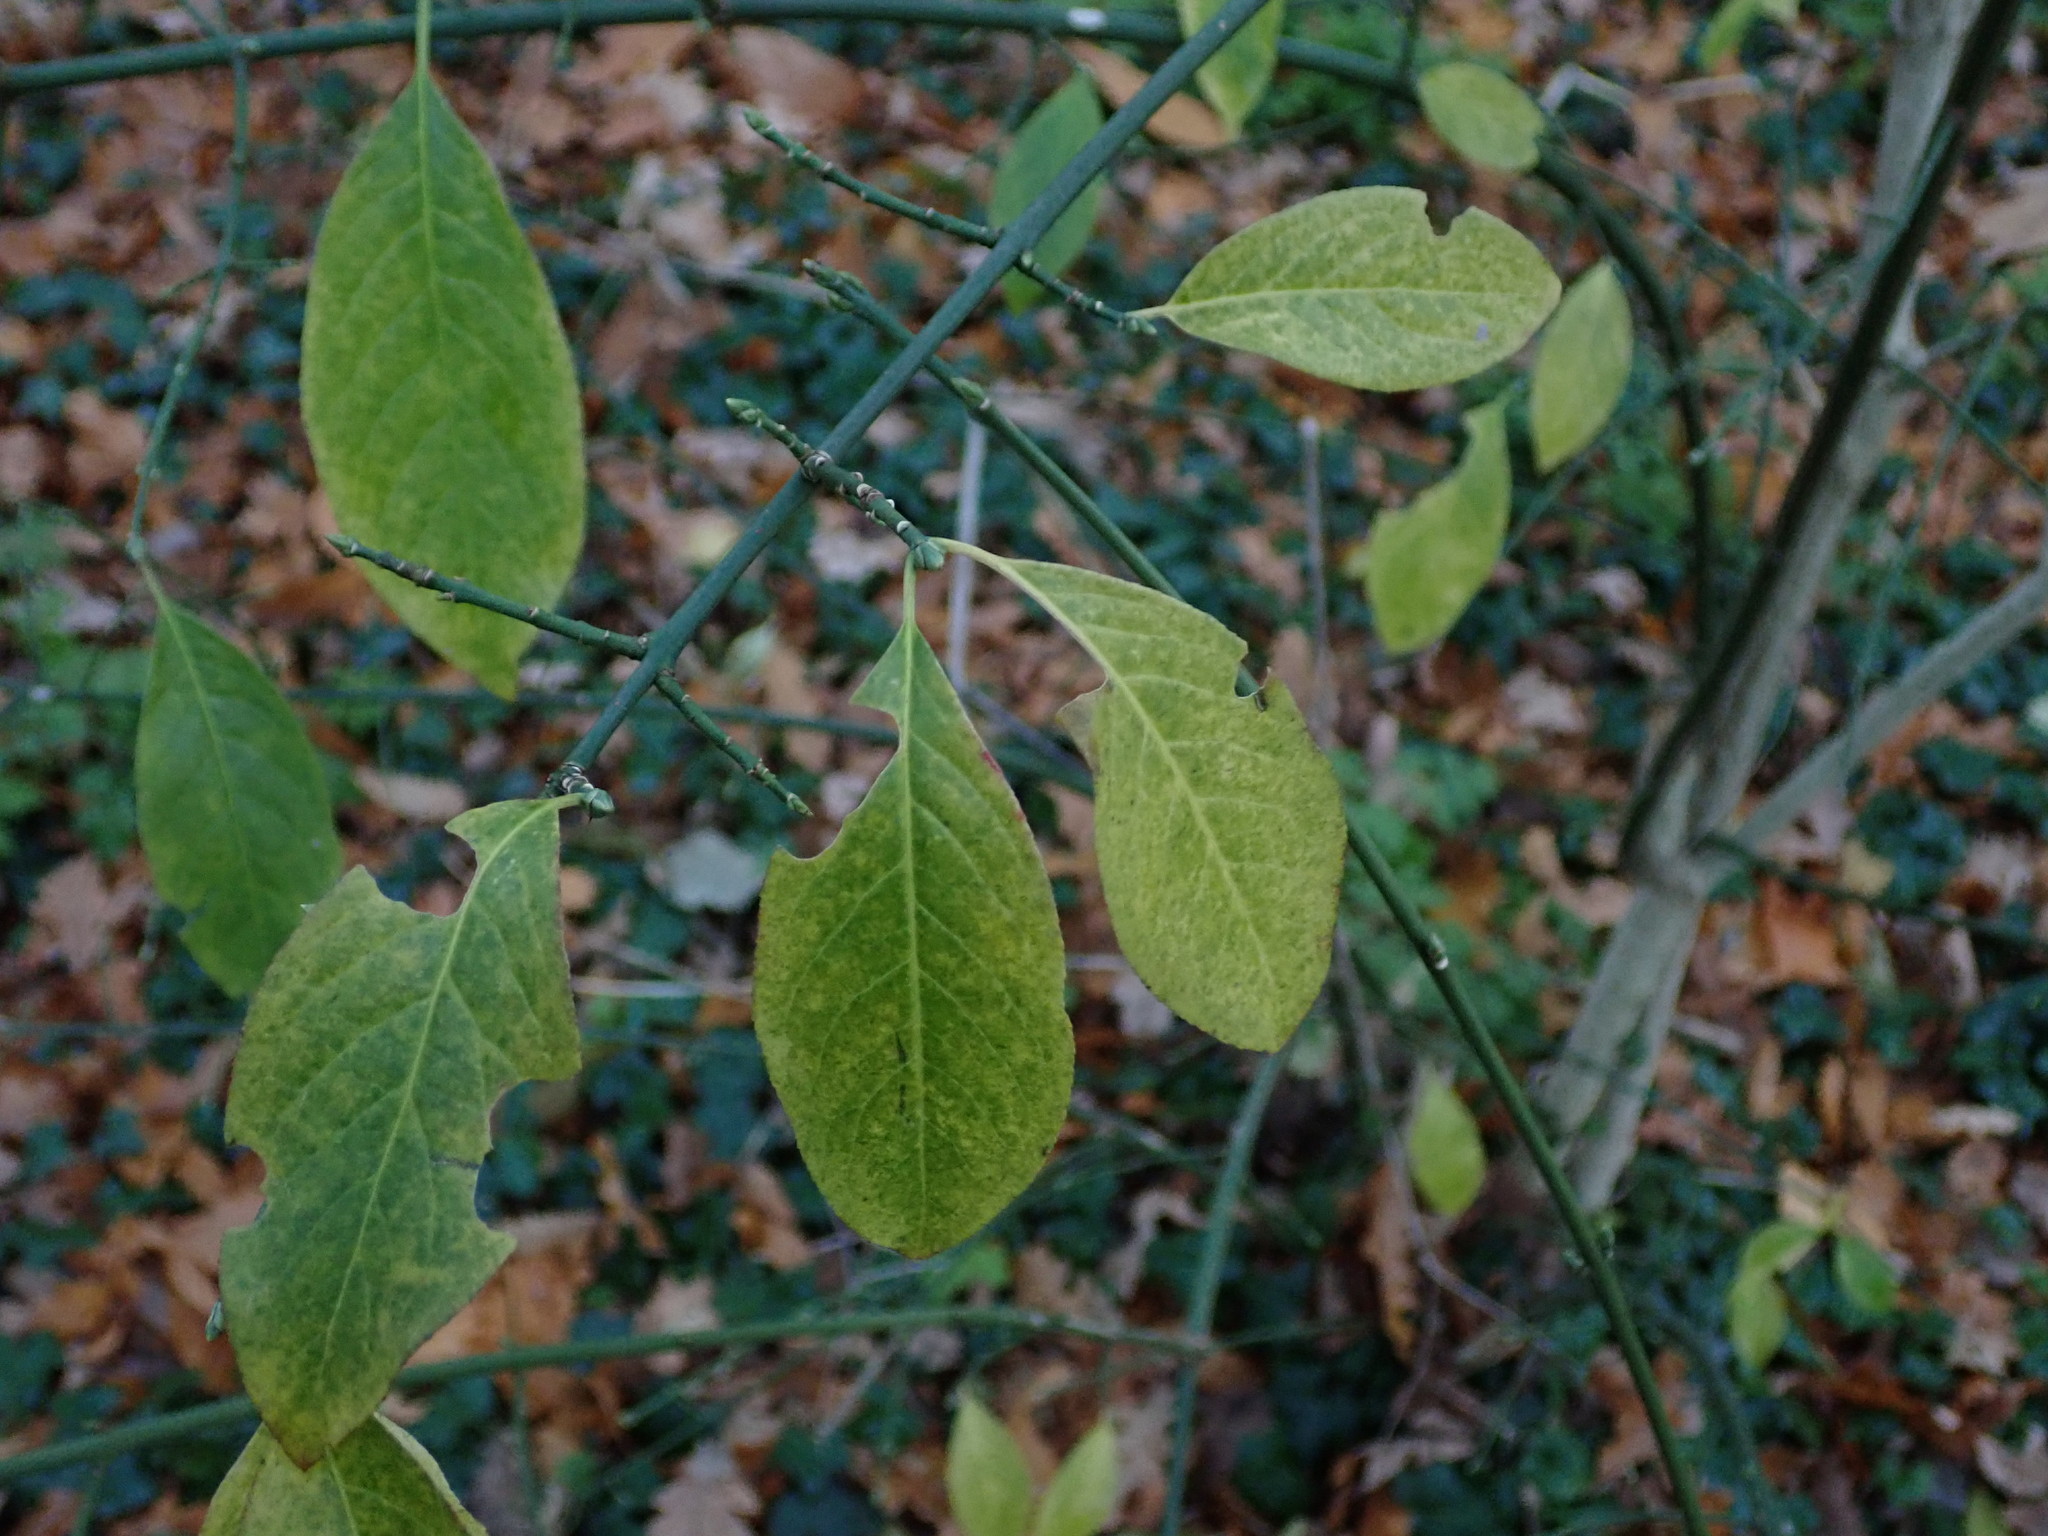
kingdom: Plantae
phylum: Tracheophyta
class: Magnoliopsida
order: Celastrales
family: Celastraceae
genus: Euonymus
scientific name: Euonymus europaeus
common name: Spindle
